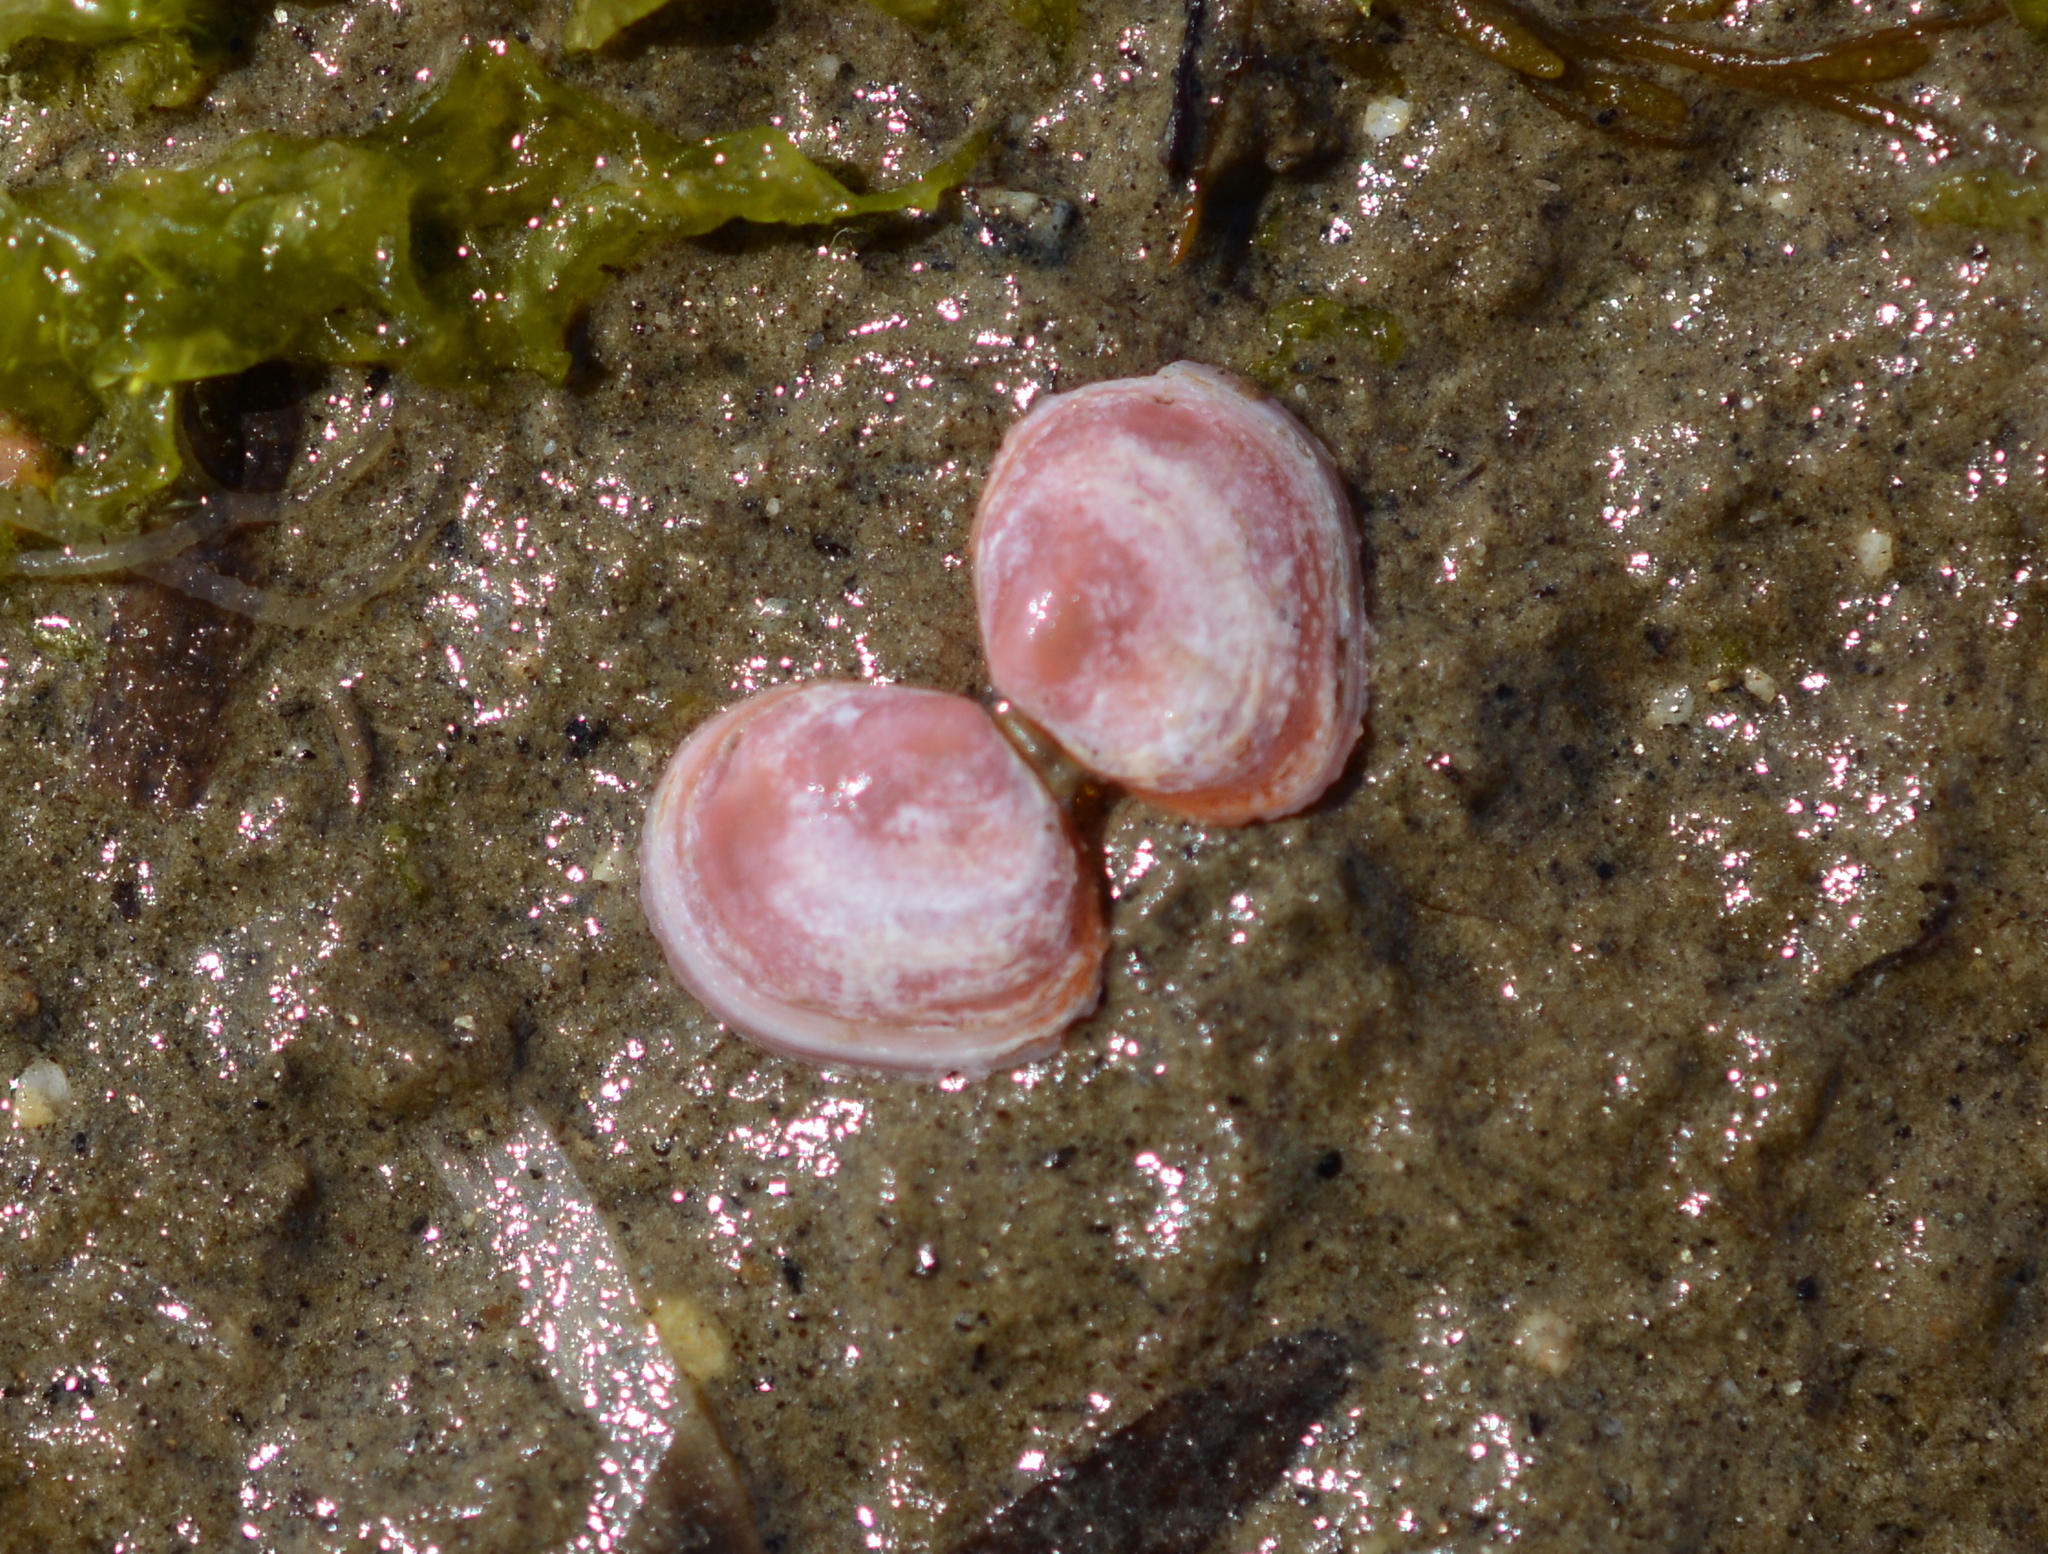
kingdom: Animalia
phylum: Mollusca
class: Bivalvia
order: Cardiida
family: Tellinidae
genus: Macoma
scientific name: Macoma balthica
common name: Baltic tellin
